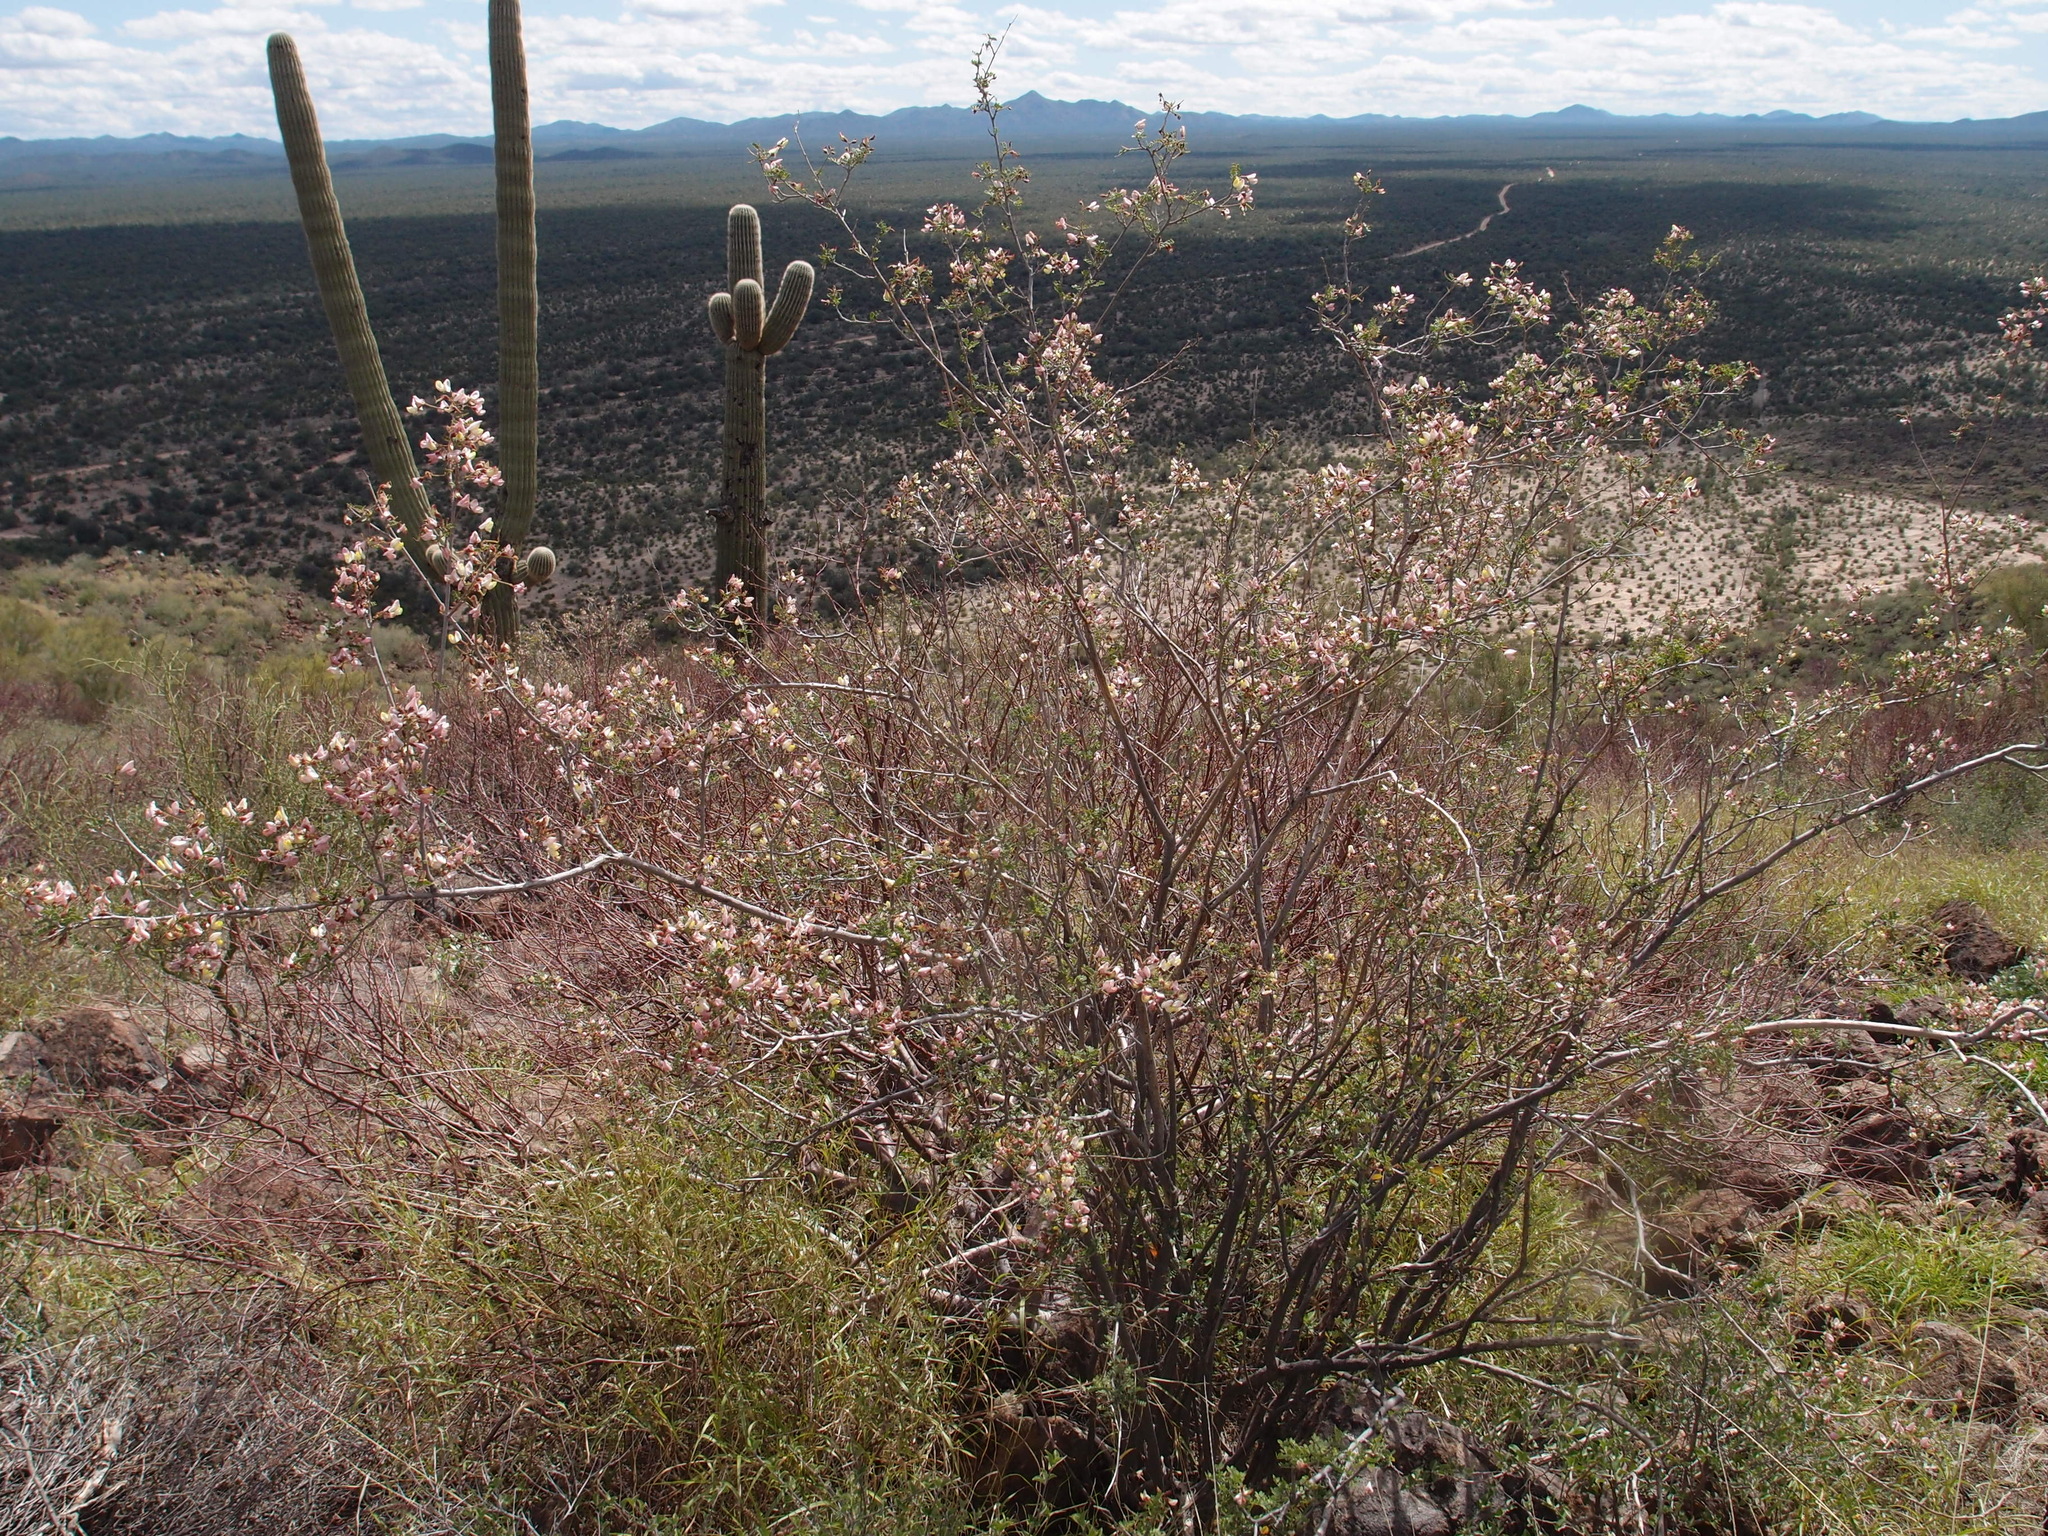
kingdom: Plantae
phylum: Tracheophyta
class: Magnoliopsida
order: Fabales
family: Fabaceae
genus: Coursetia
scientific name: Coursetia glandulosa
